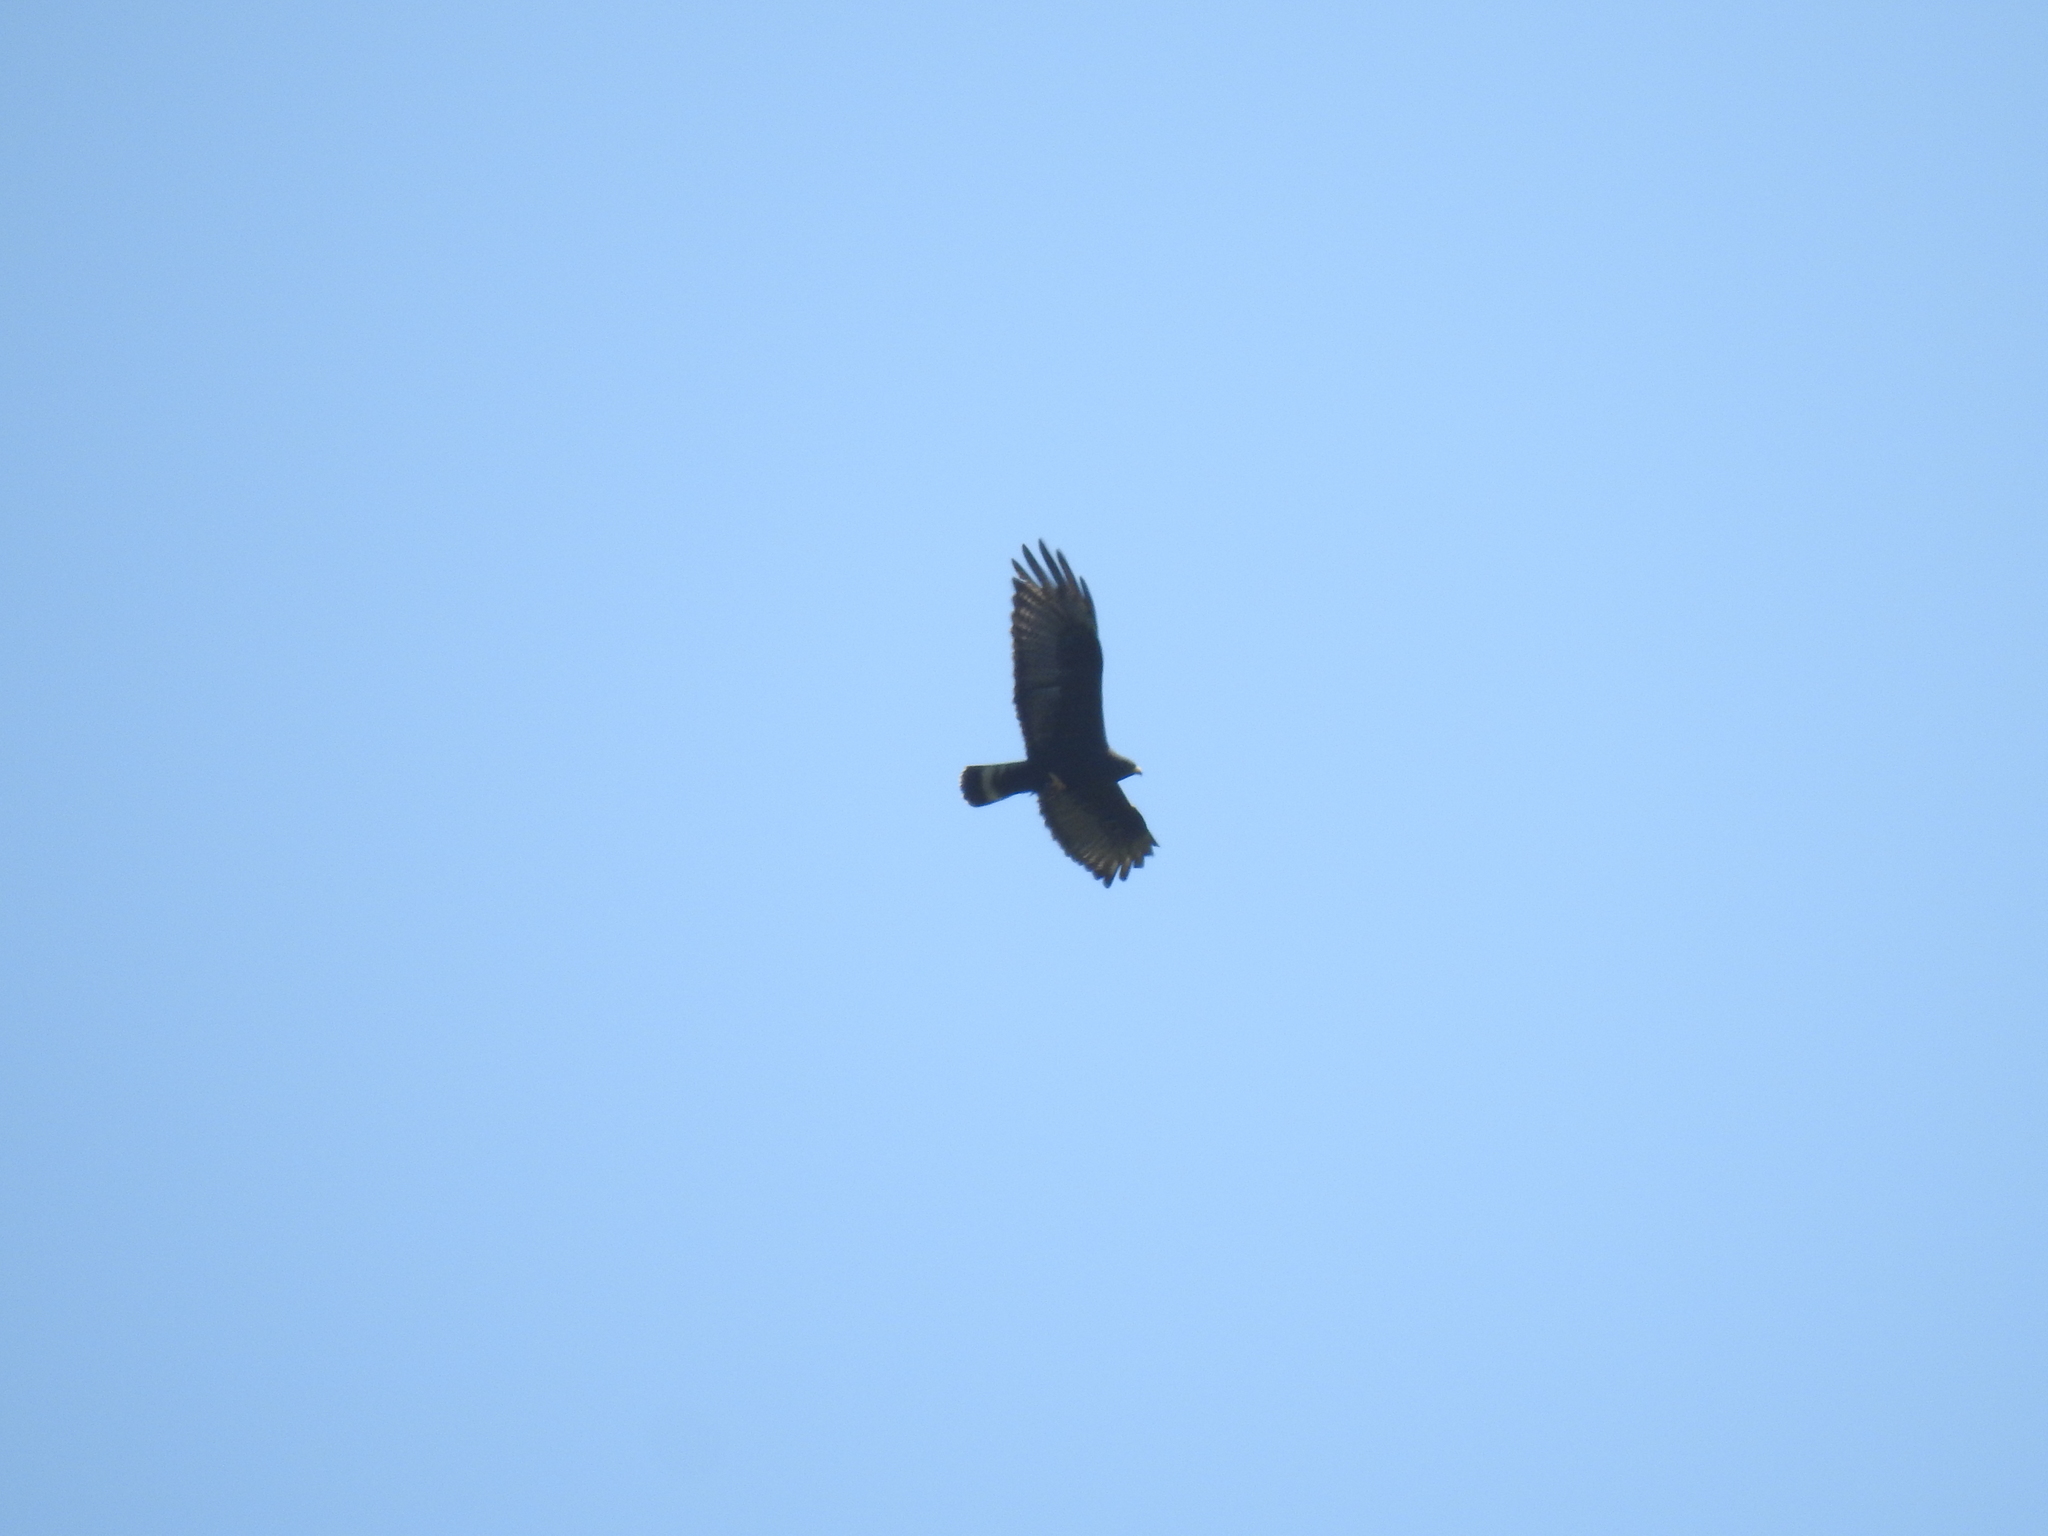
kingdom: Animalia
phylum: Chordata
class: Aves
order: Accipitriformes
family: Accipitridae
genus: Buteo
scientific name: Buteo albonotatus
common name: Zone-tailed hawk
